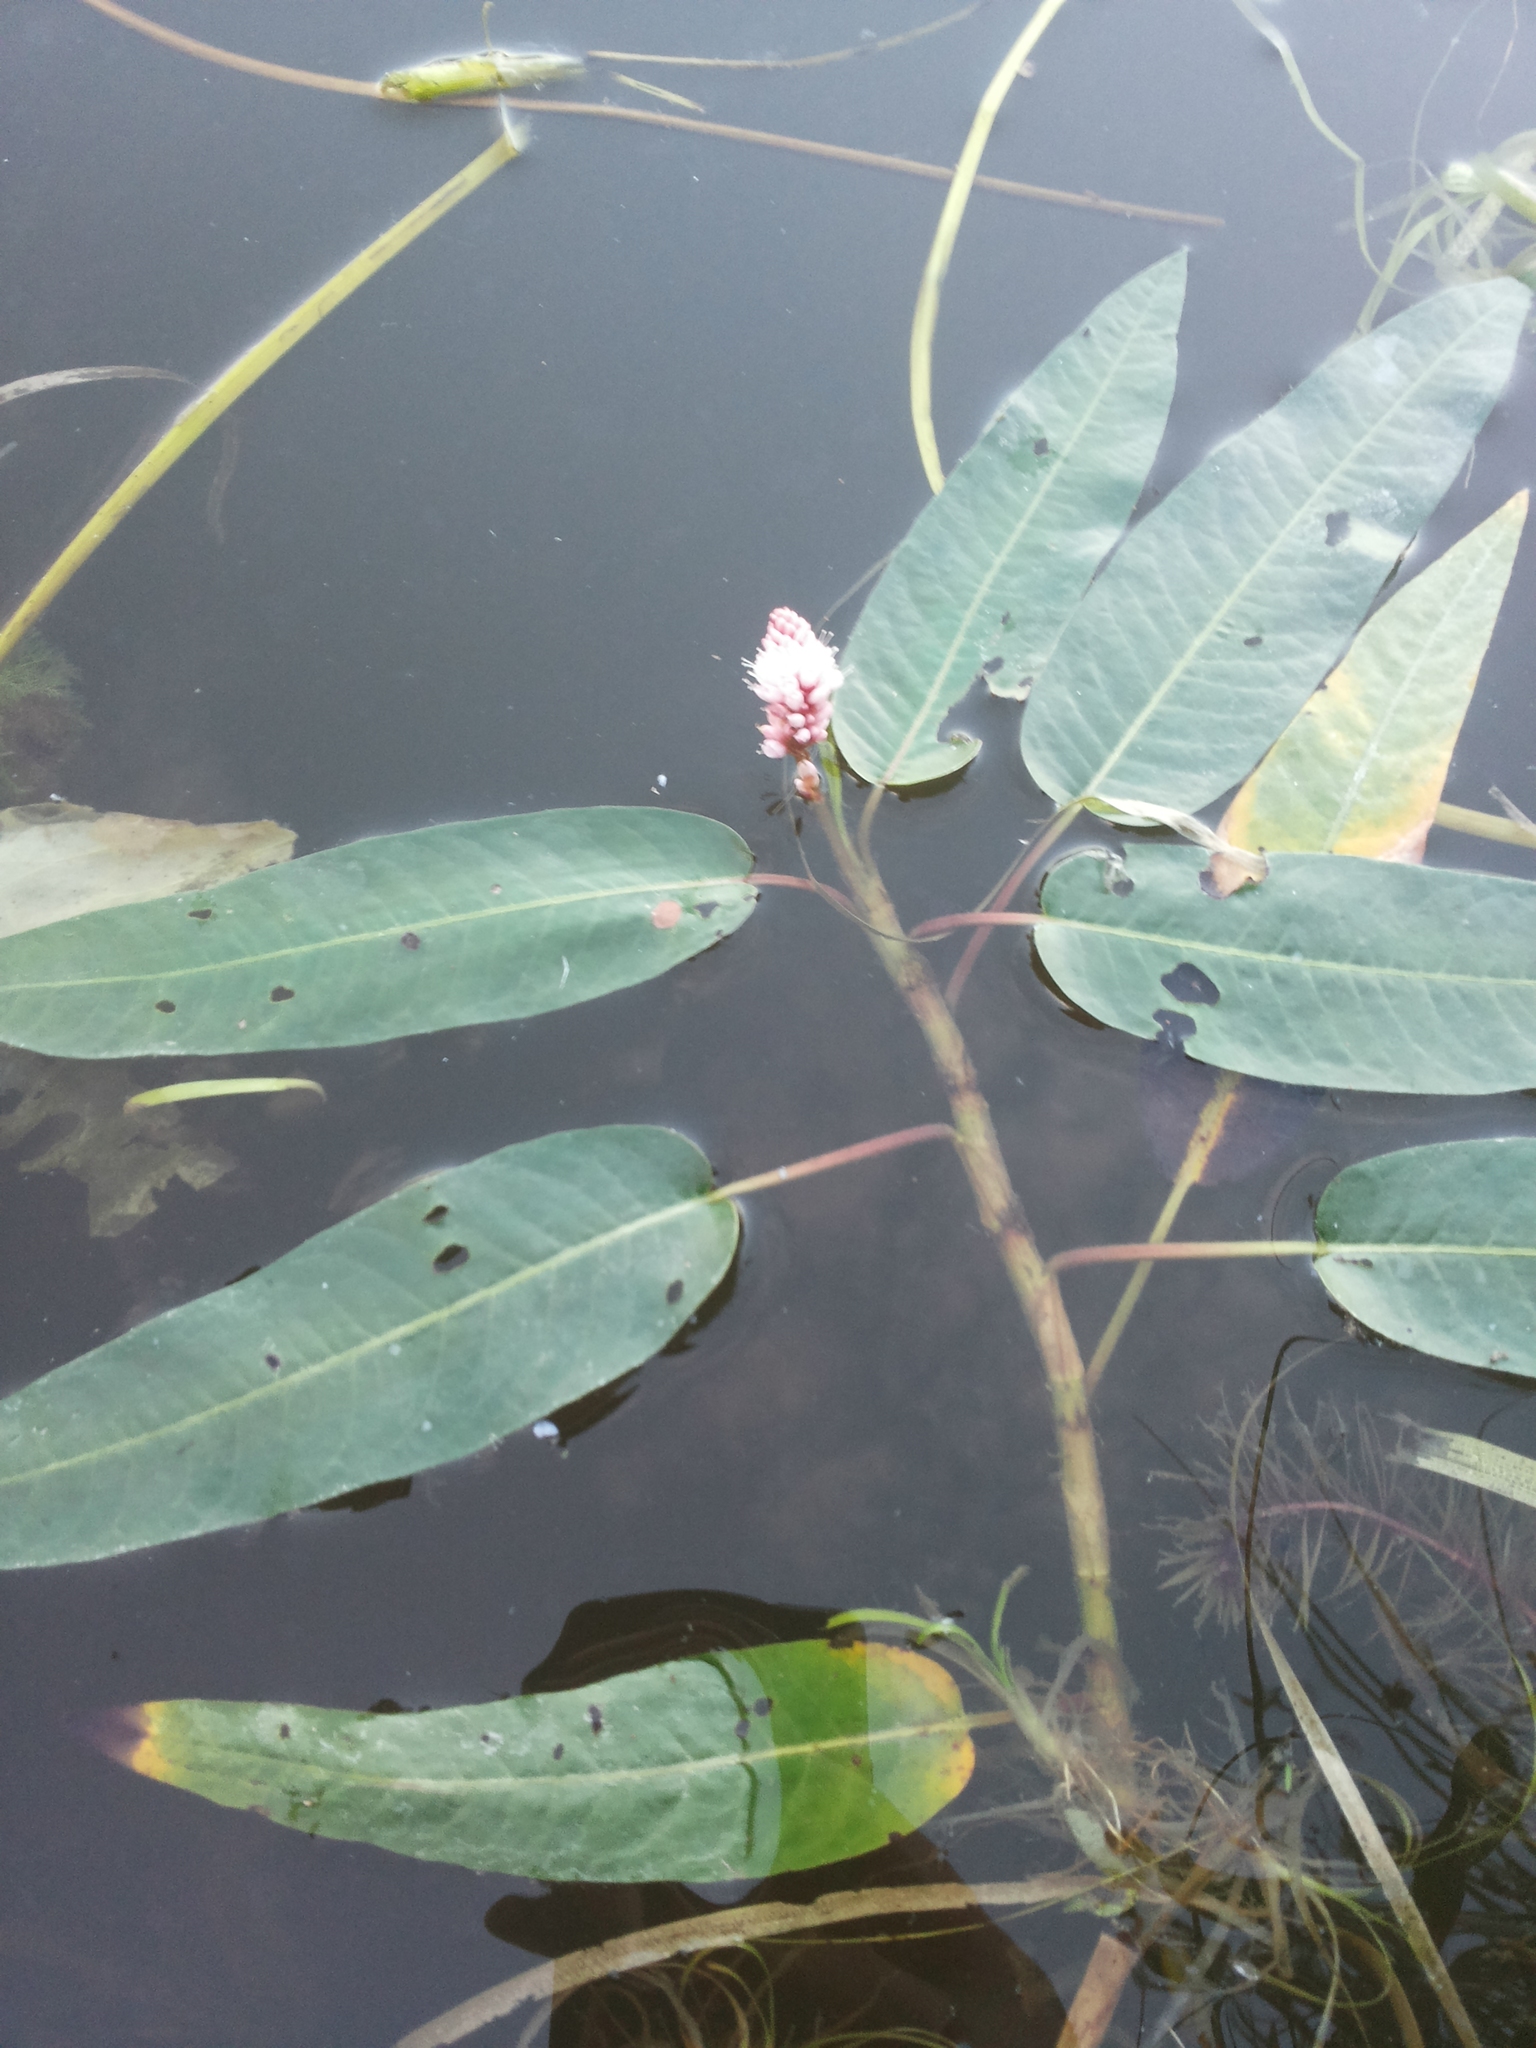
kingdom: Plantae
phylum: Tracheophyta
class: Magnoliopsida
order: Caryophyllales
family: Polygonaceae
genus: Persicaria
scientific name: Persicaria amphibia
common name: Amphibious bistort
